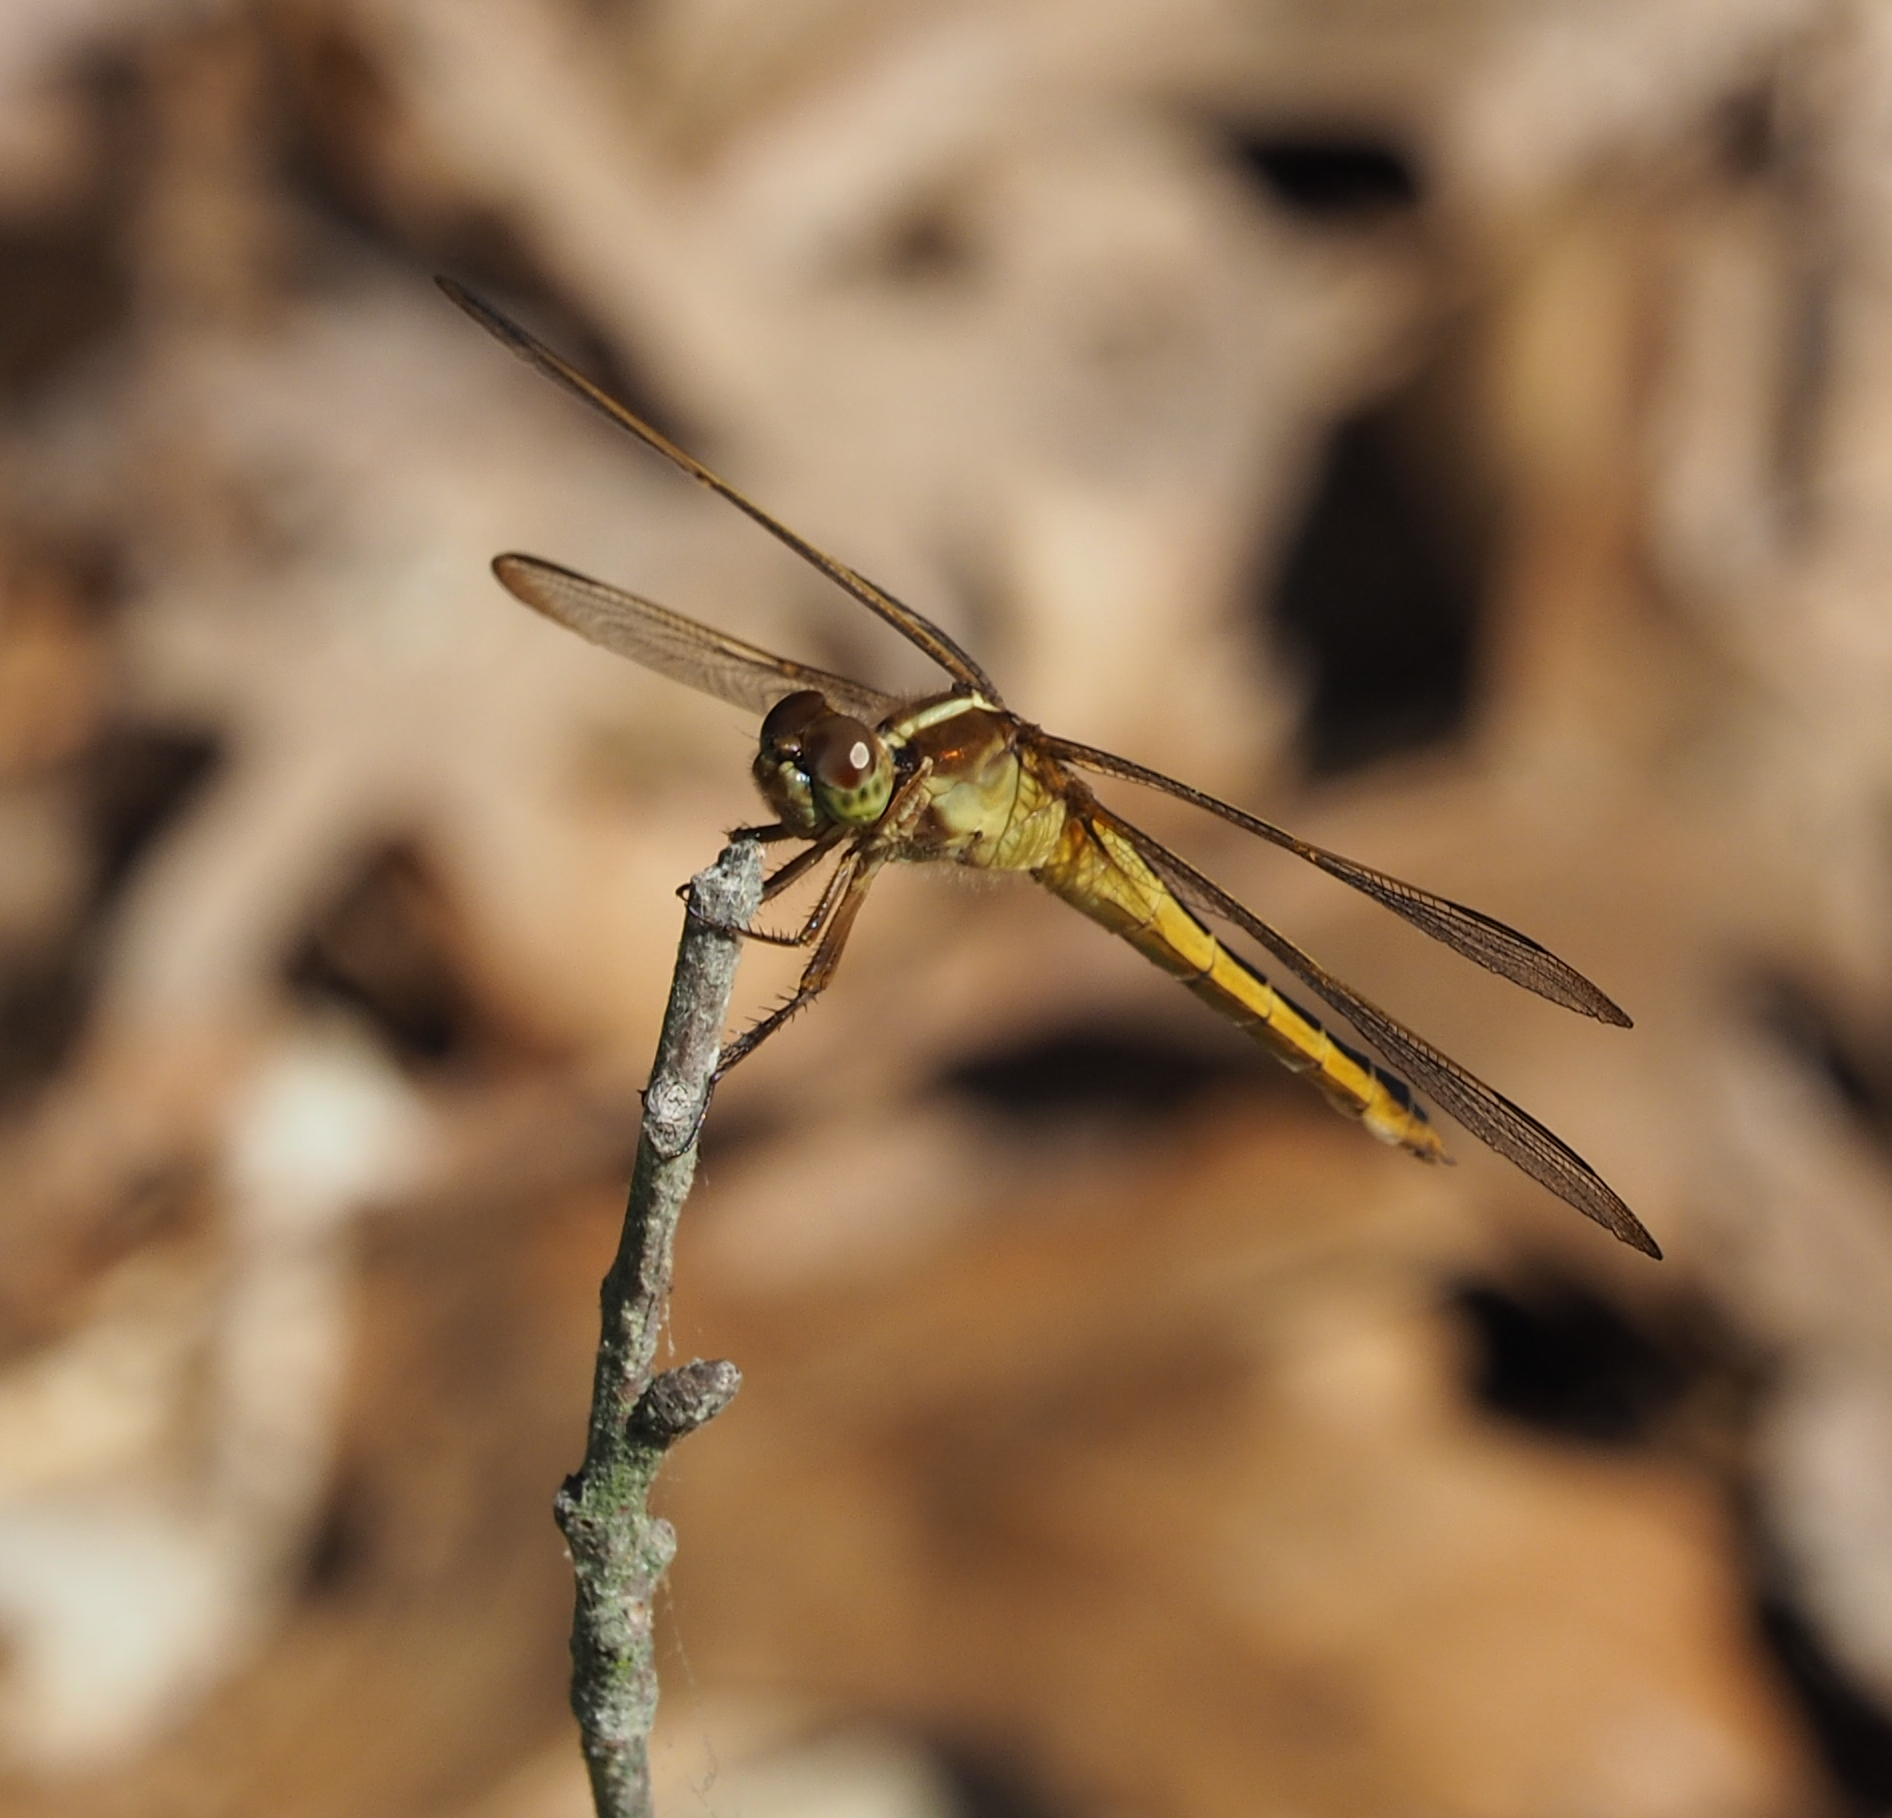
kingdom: Animalia
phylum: Arthropoda
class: Insecta
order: Odonata
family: Libellulidae
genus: Libellula
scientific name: Libellula needhami
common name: Needham's skimmer
